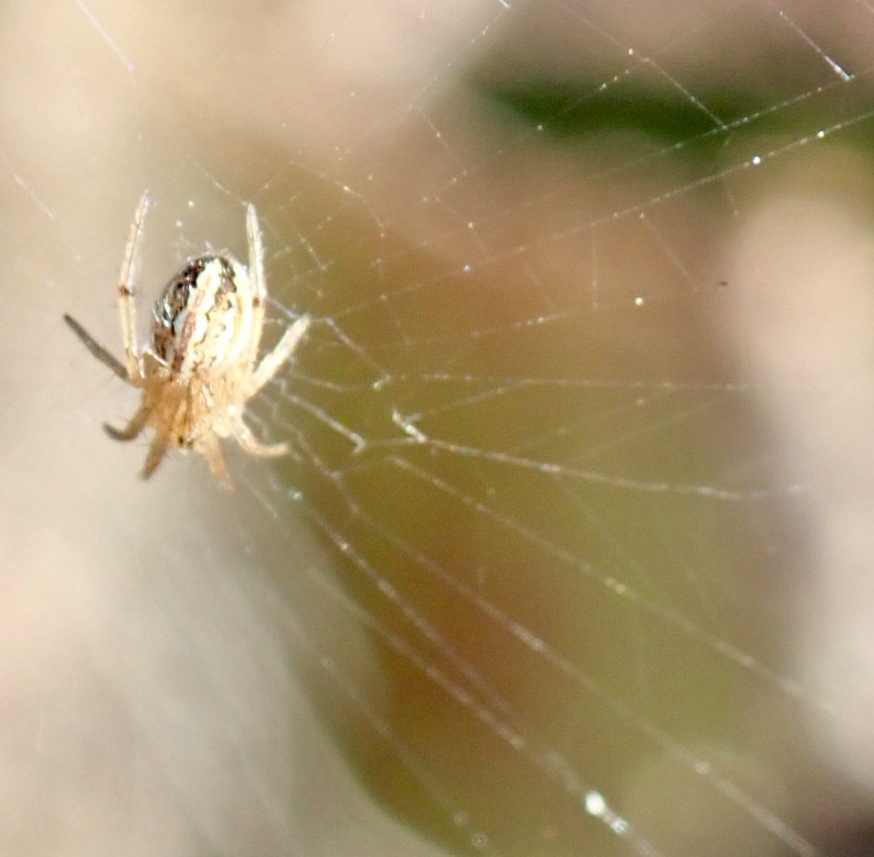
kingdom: Animalia
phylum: Arthropoda
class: Arachnida
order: Araneae
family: Araneidae
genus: Neoscona
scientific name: Neoscona oaxacensis
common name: Orb weavers
